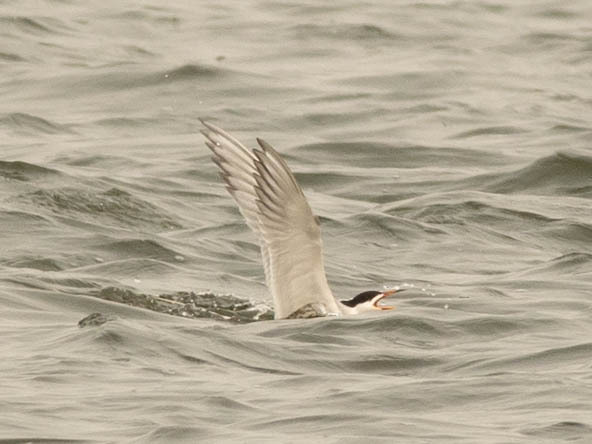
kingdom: Animalia
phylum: Chordata
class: Aves
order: Charadriiformes
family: Laridae
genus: Sterna
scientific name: Sterna hirundo
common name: Common tern
